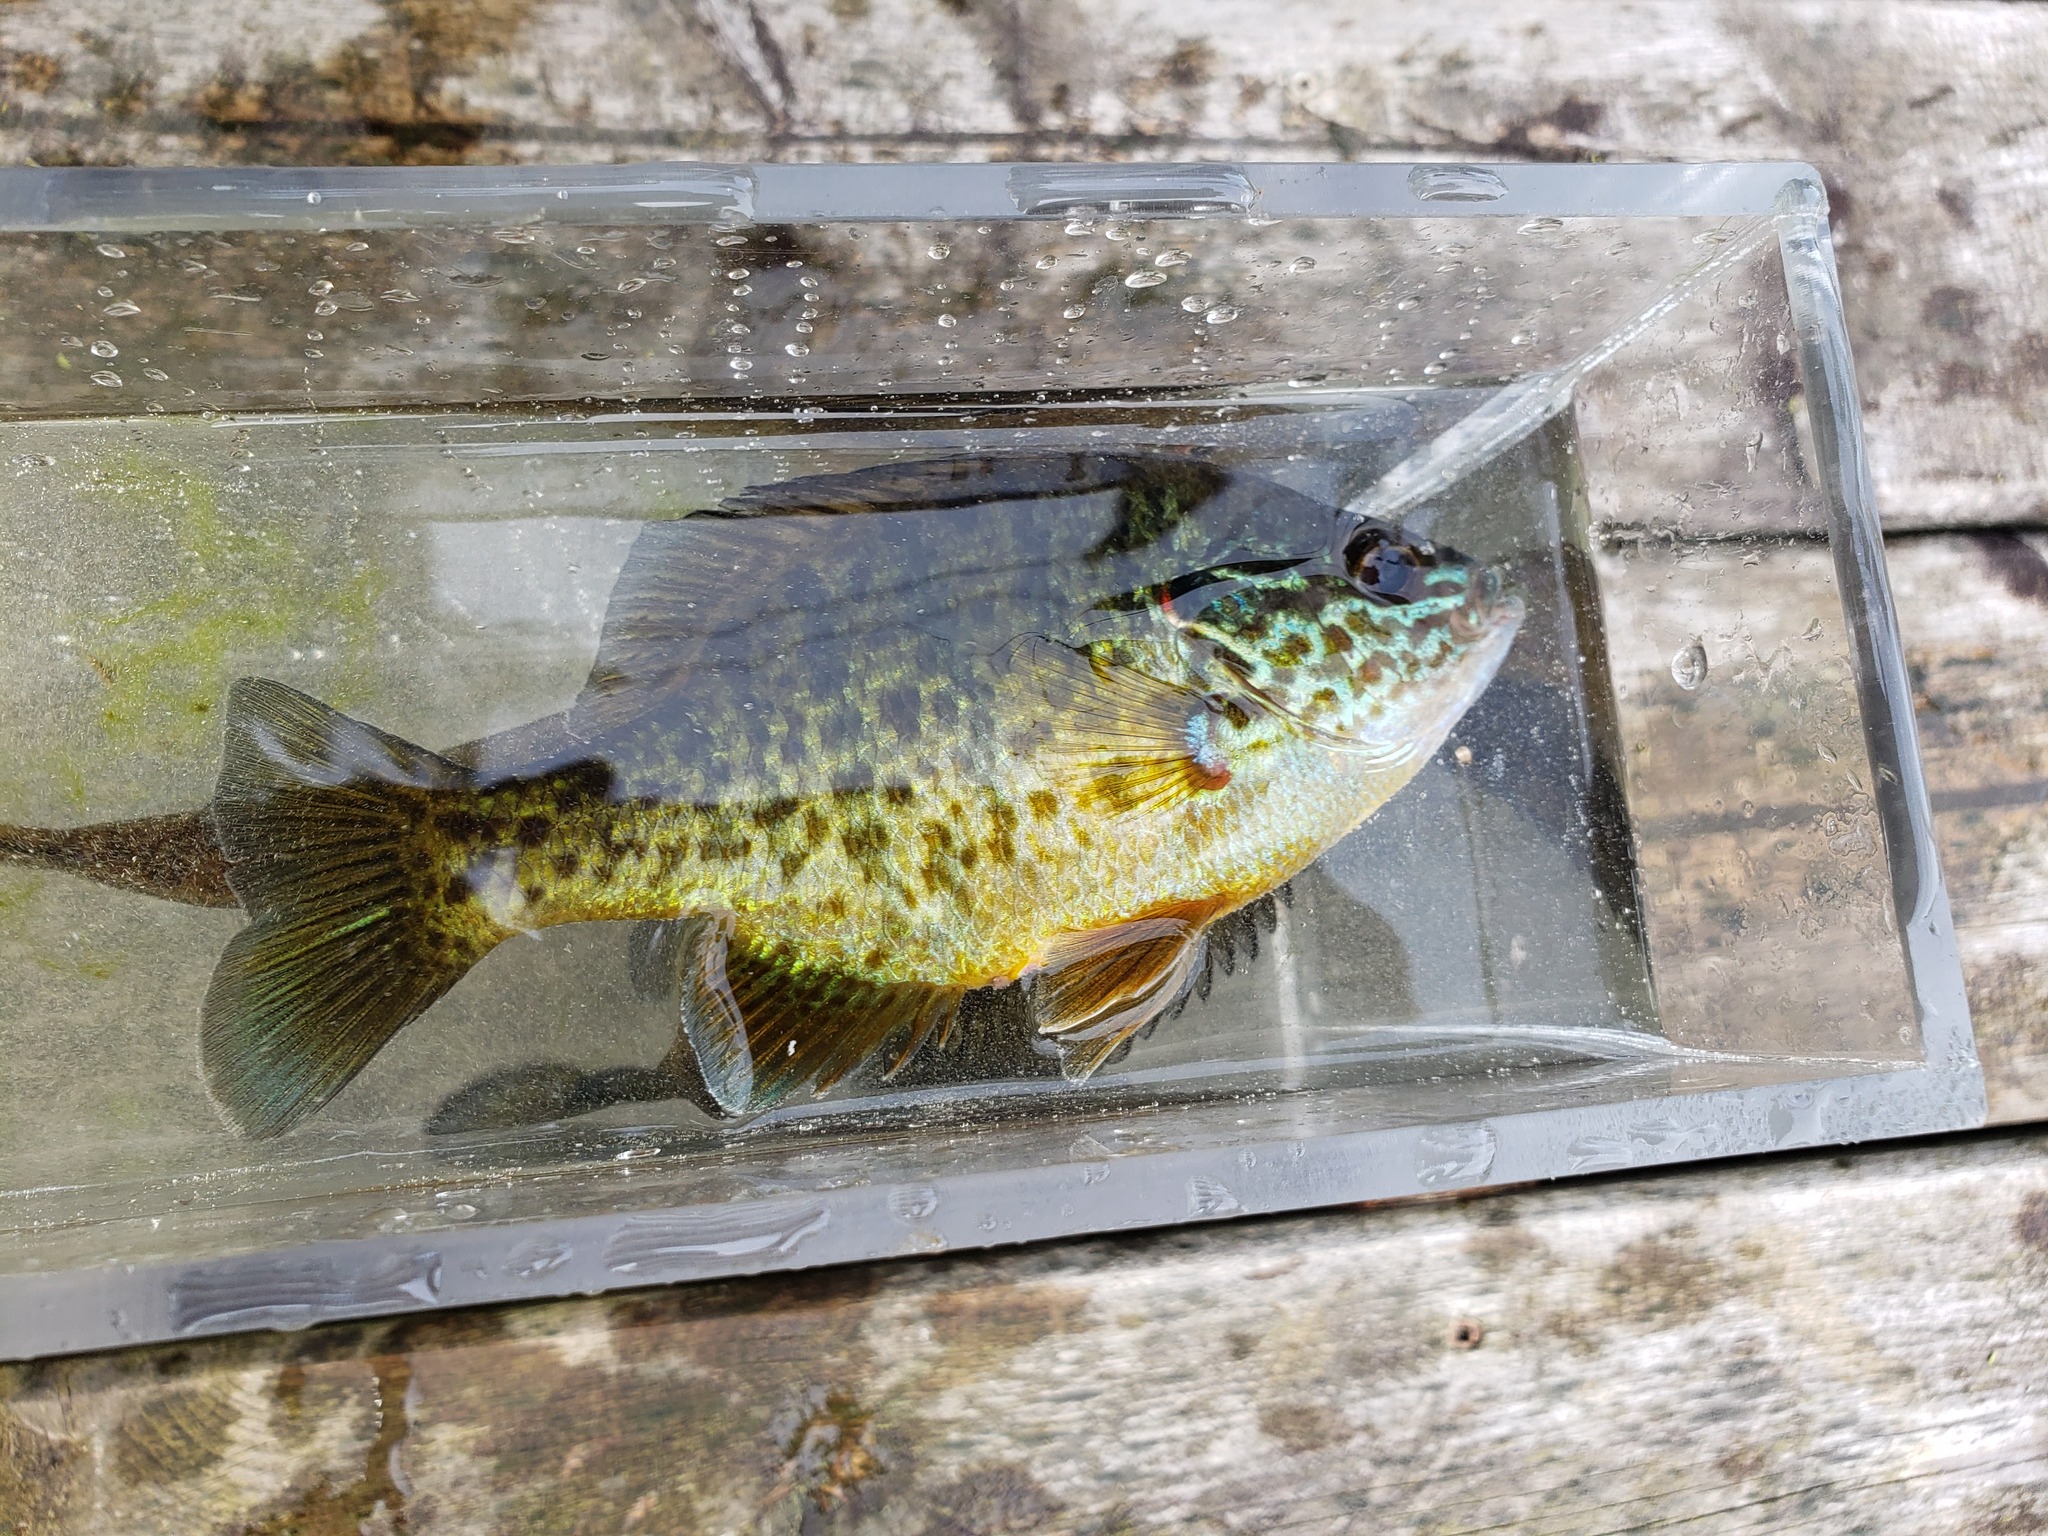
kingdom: Animalia
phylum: Chordata
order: Perciformes
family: Centrarchidae
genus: Lepomis
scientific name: Lepomis gibbosus
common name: Pumpkinseed
